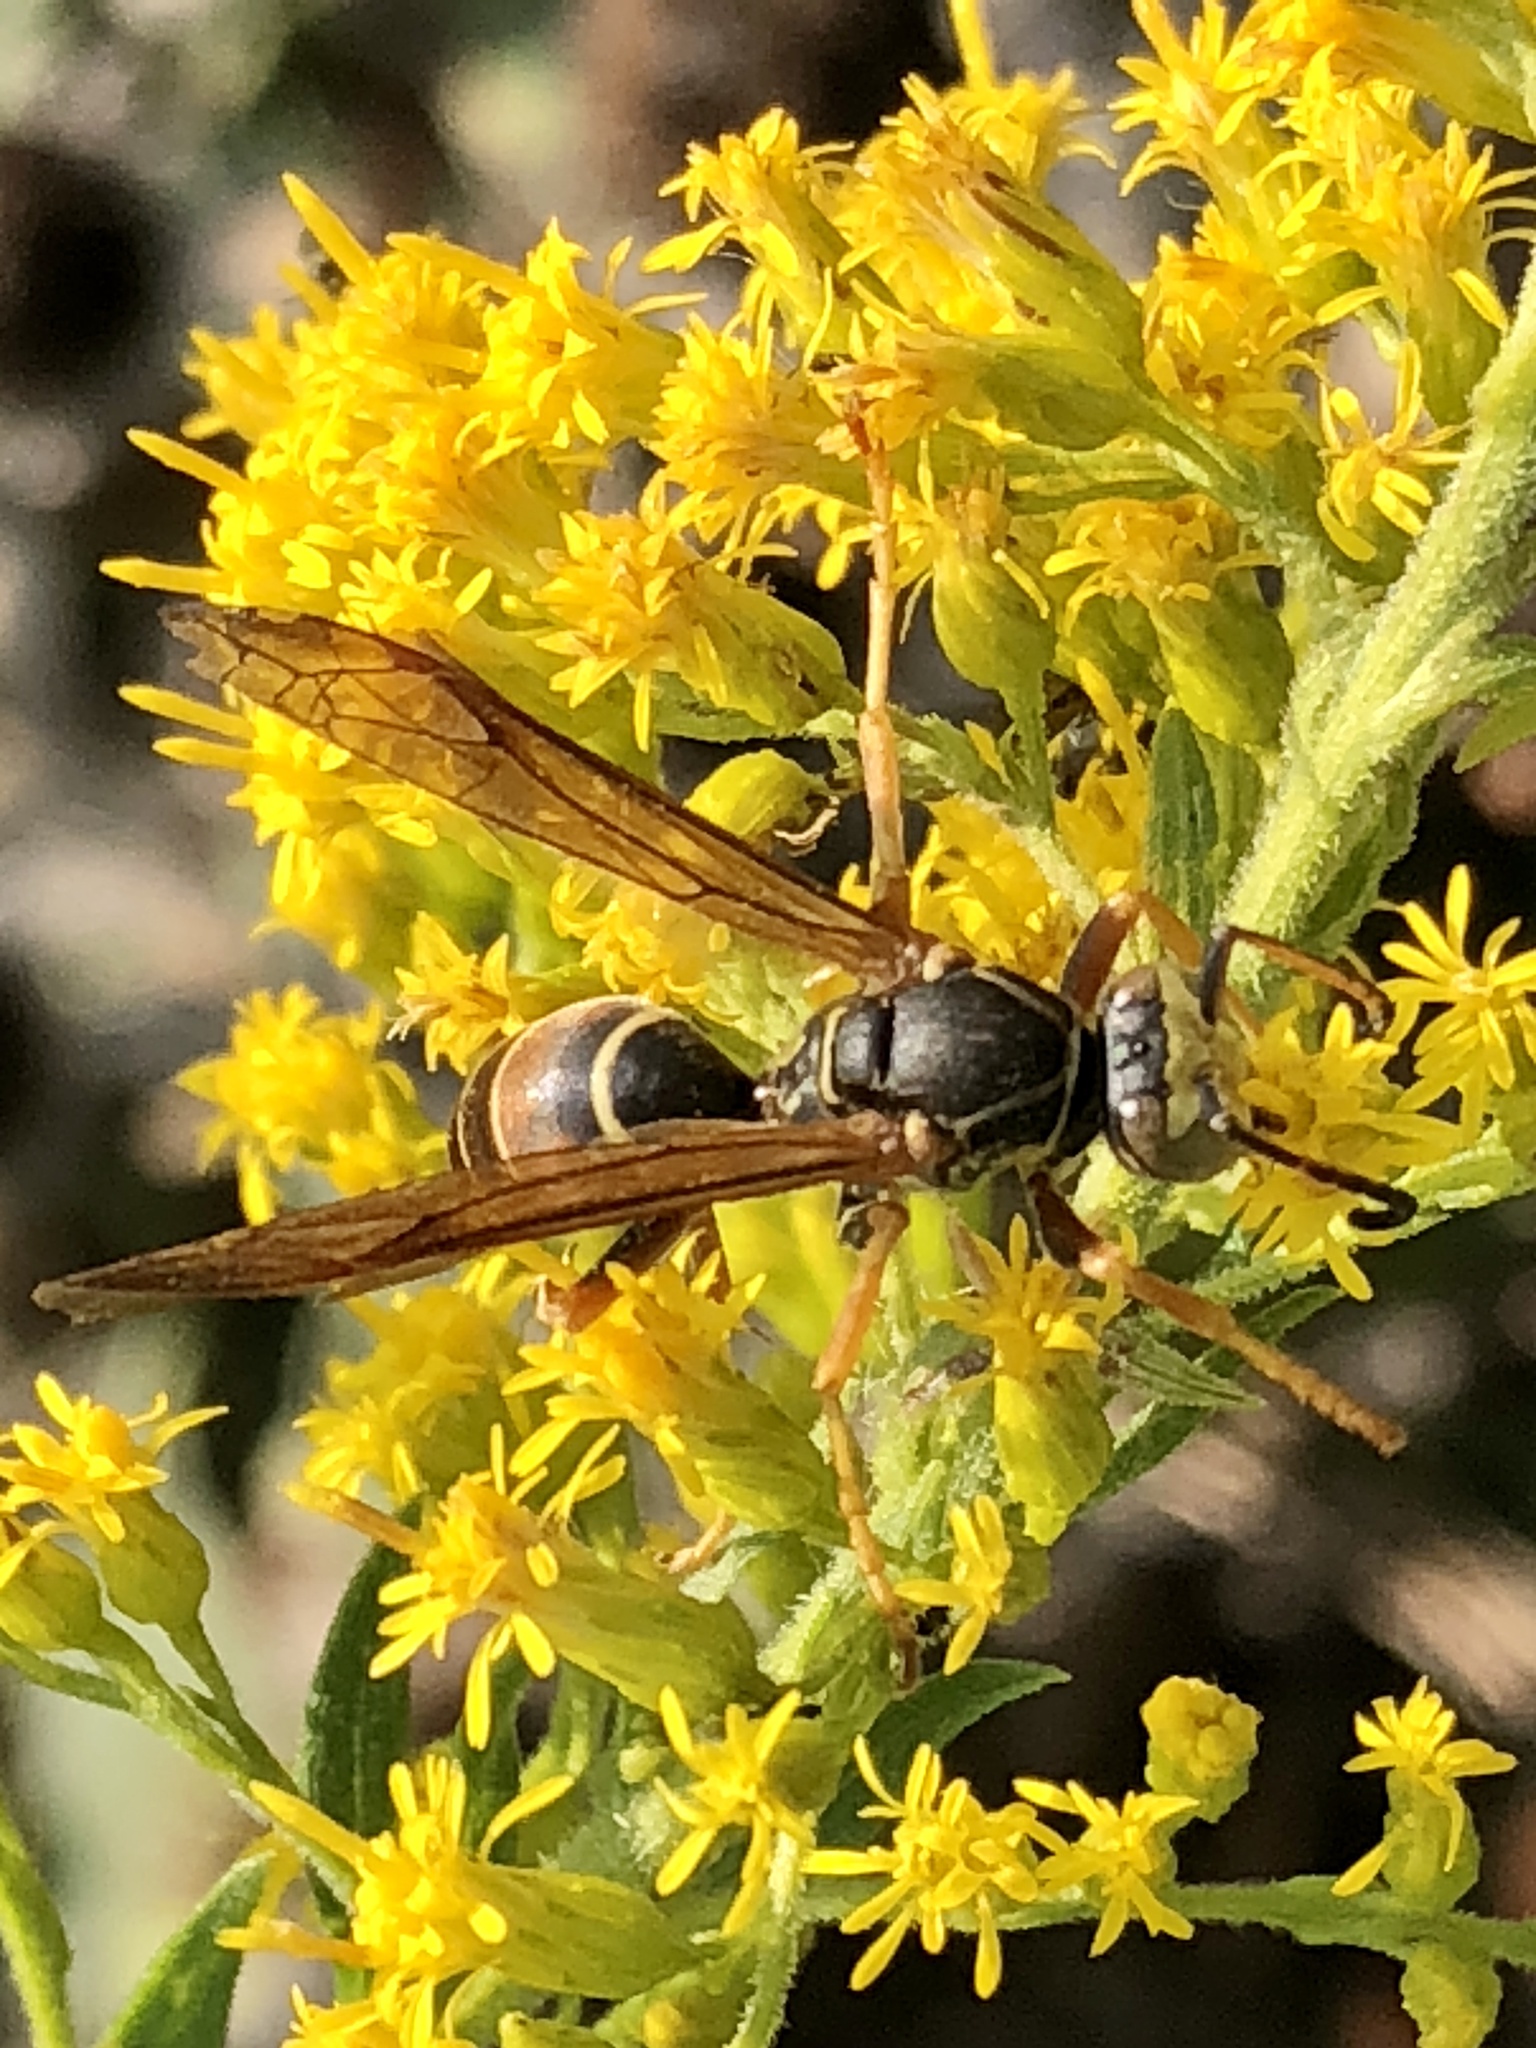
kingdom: Animalia
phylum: Arthropoda
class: Insecta
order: Hymenoptera
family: Eumenidae
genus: Polistes
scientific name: Polistes fuscatus
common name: Dark paper wasp
